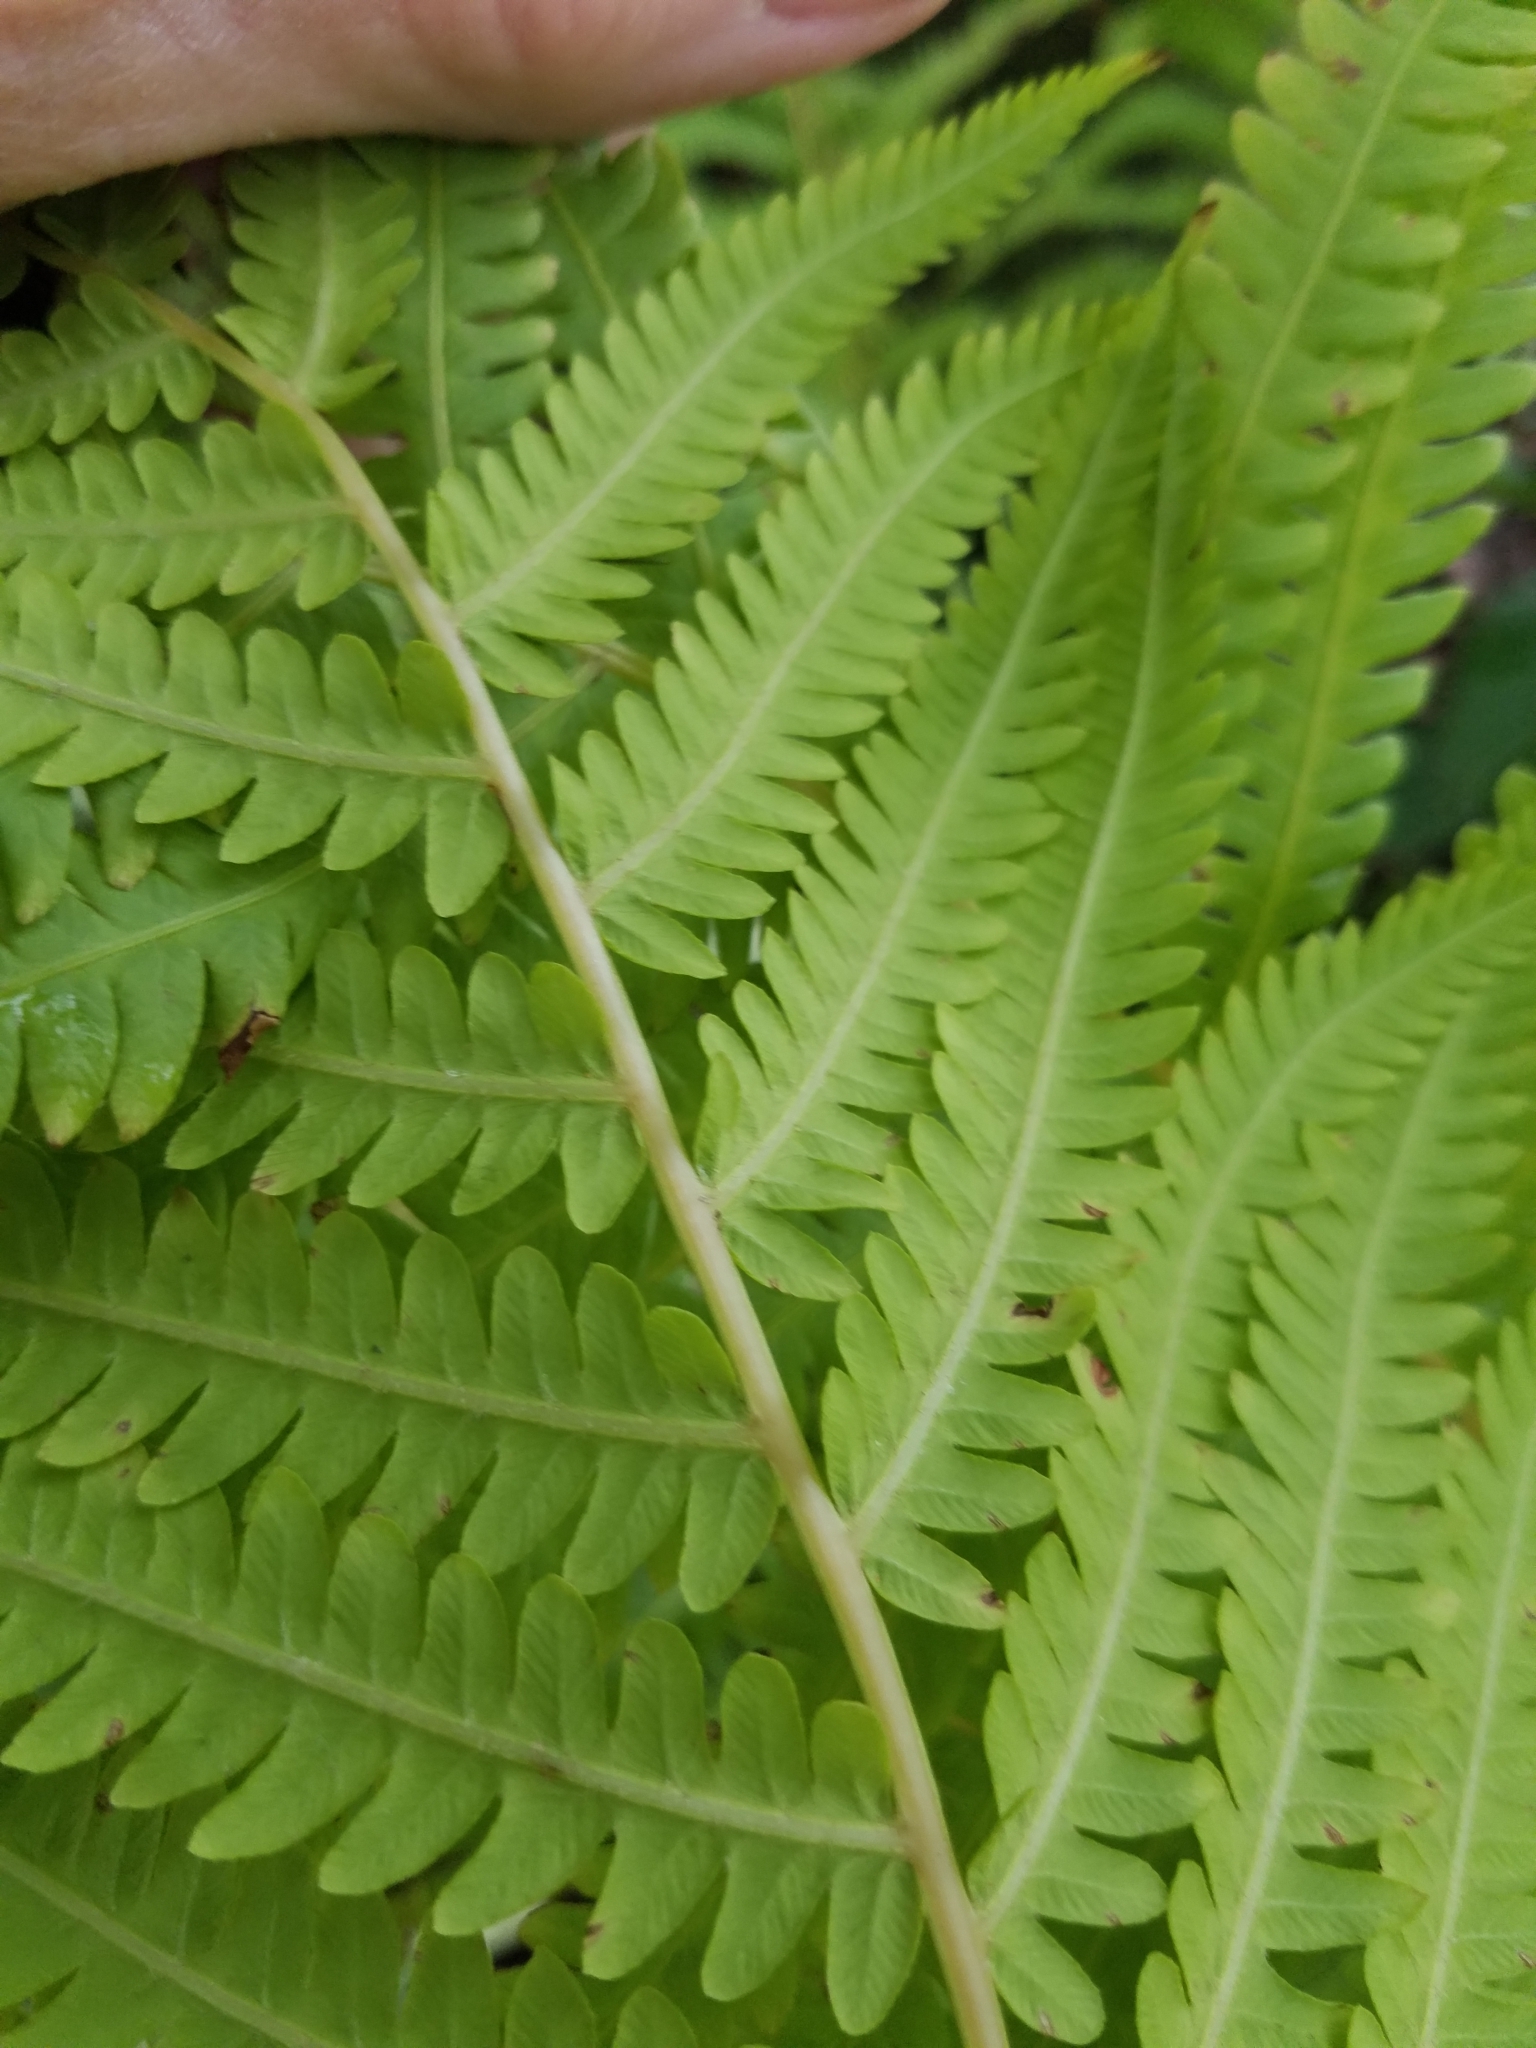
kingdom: Plantae
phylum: Tracheophyta
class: Polypodiopsida
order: Polypodiales
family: Onocleaceae
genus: Matteuccia
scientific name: Matteuccia struthiopteris
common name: Ostrich fern
